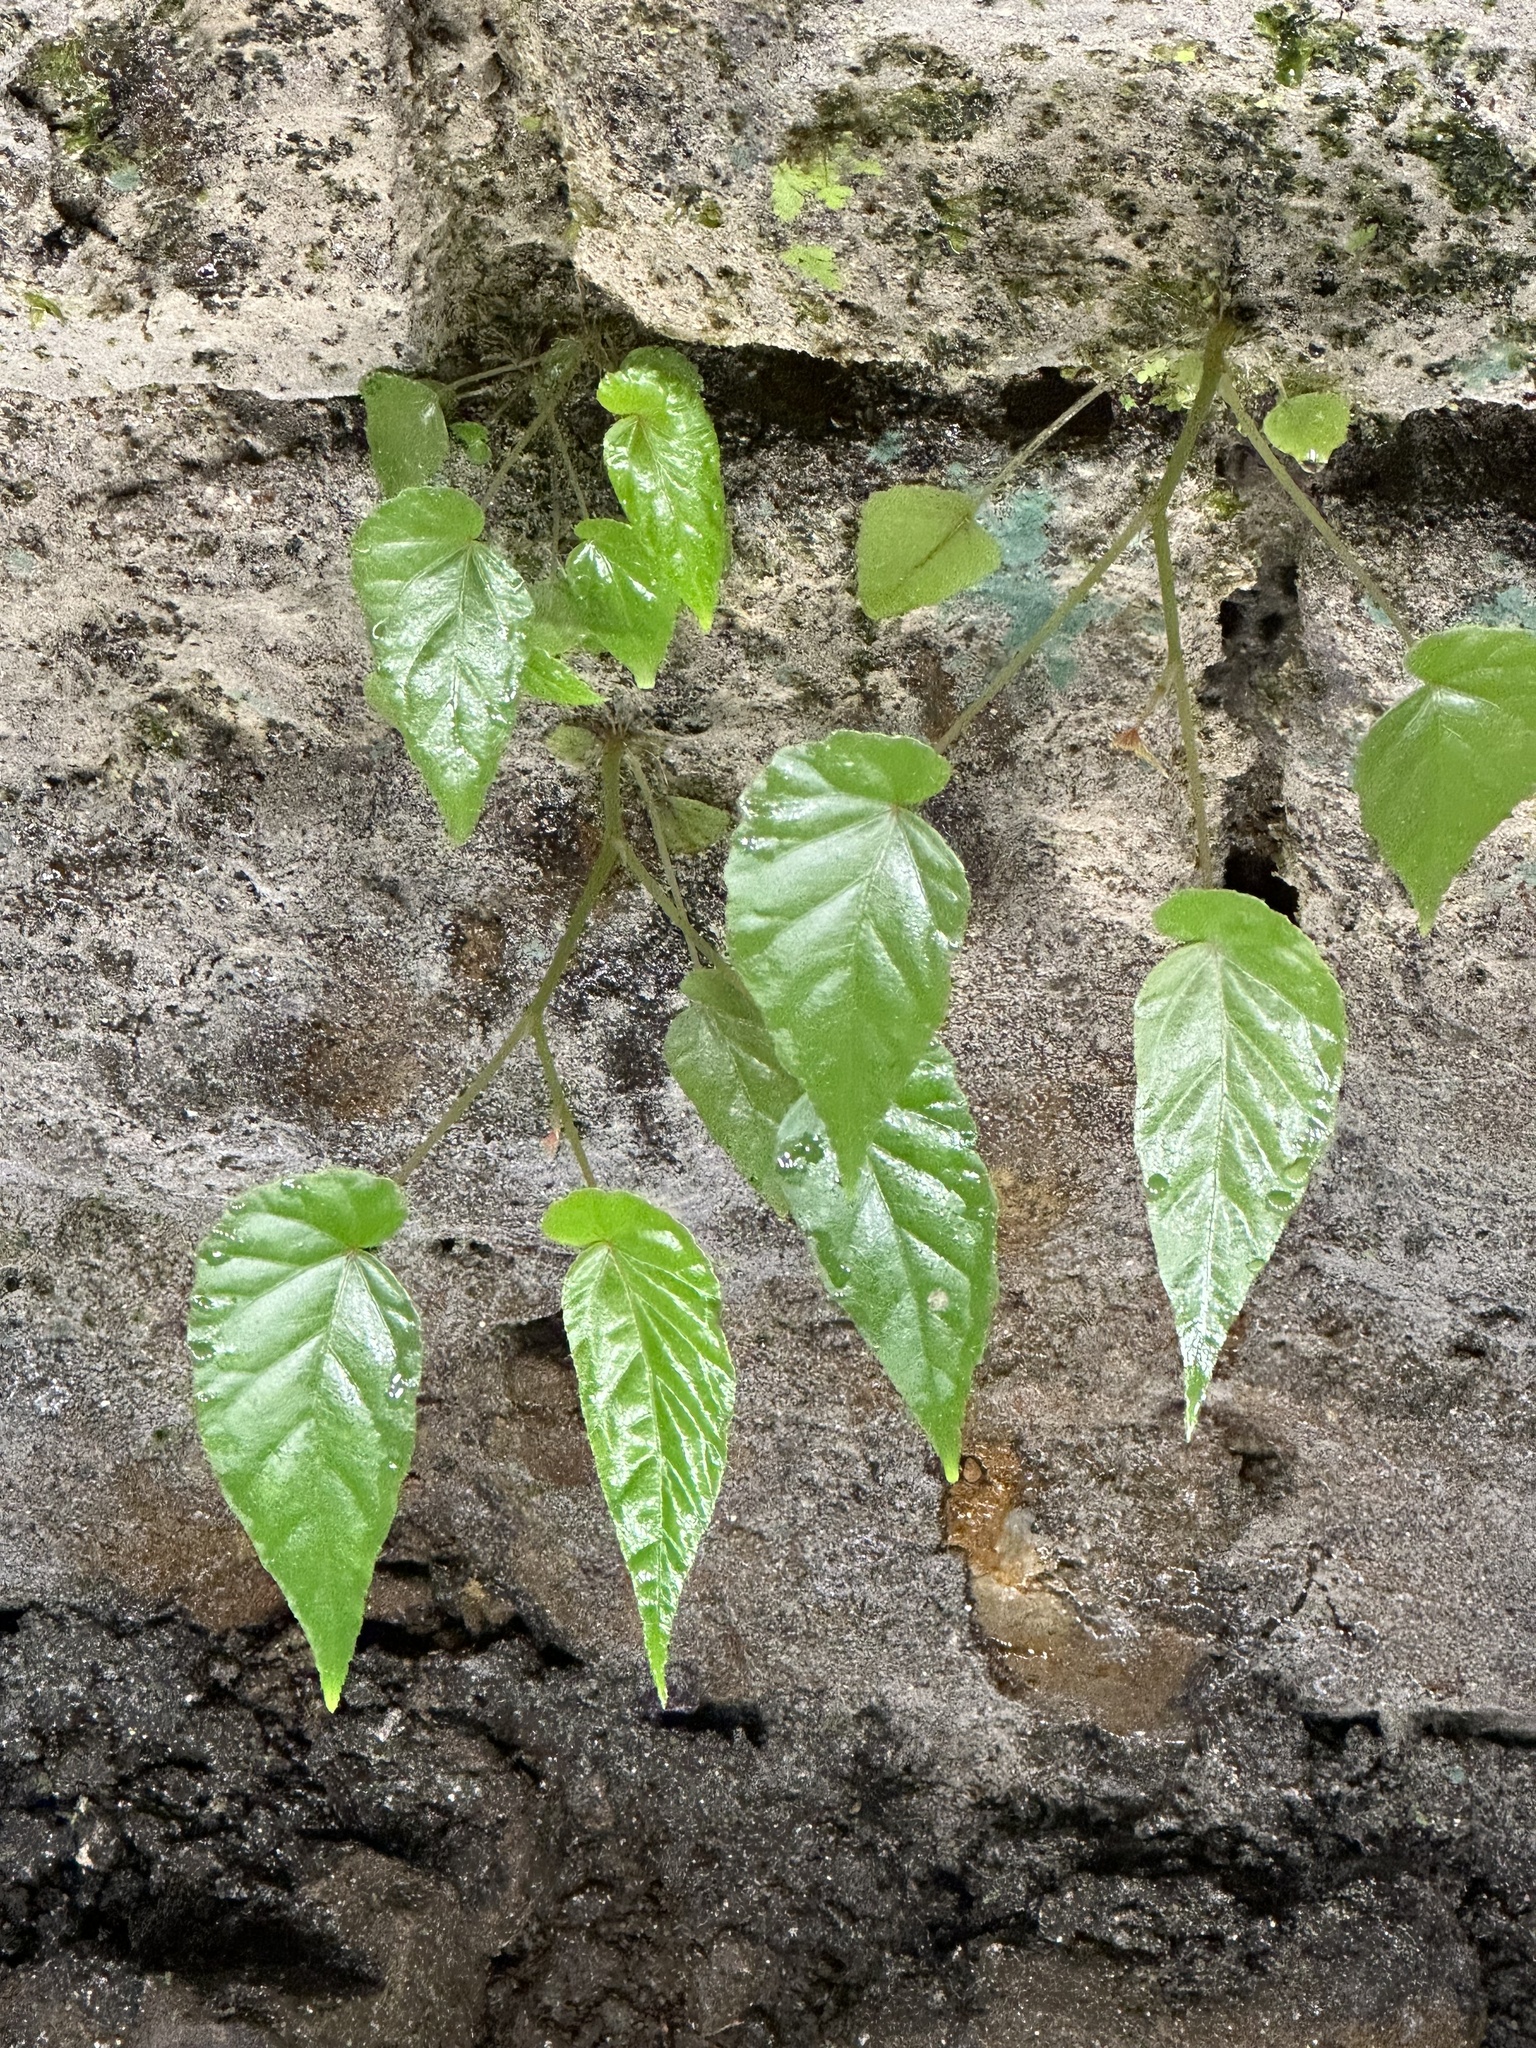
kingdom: Plantae
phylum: Tracheophyta
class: Magnoliopsida
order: Cucurbitales
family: Begoniaceae
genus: Begonia
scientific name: Begonia longifolia
